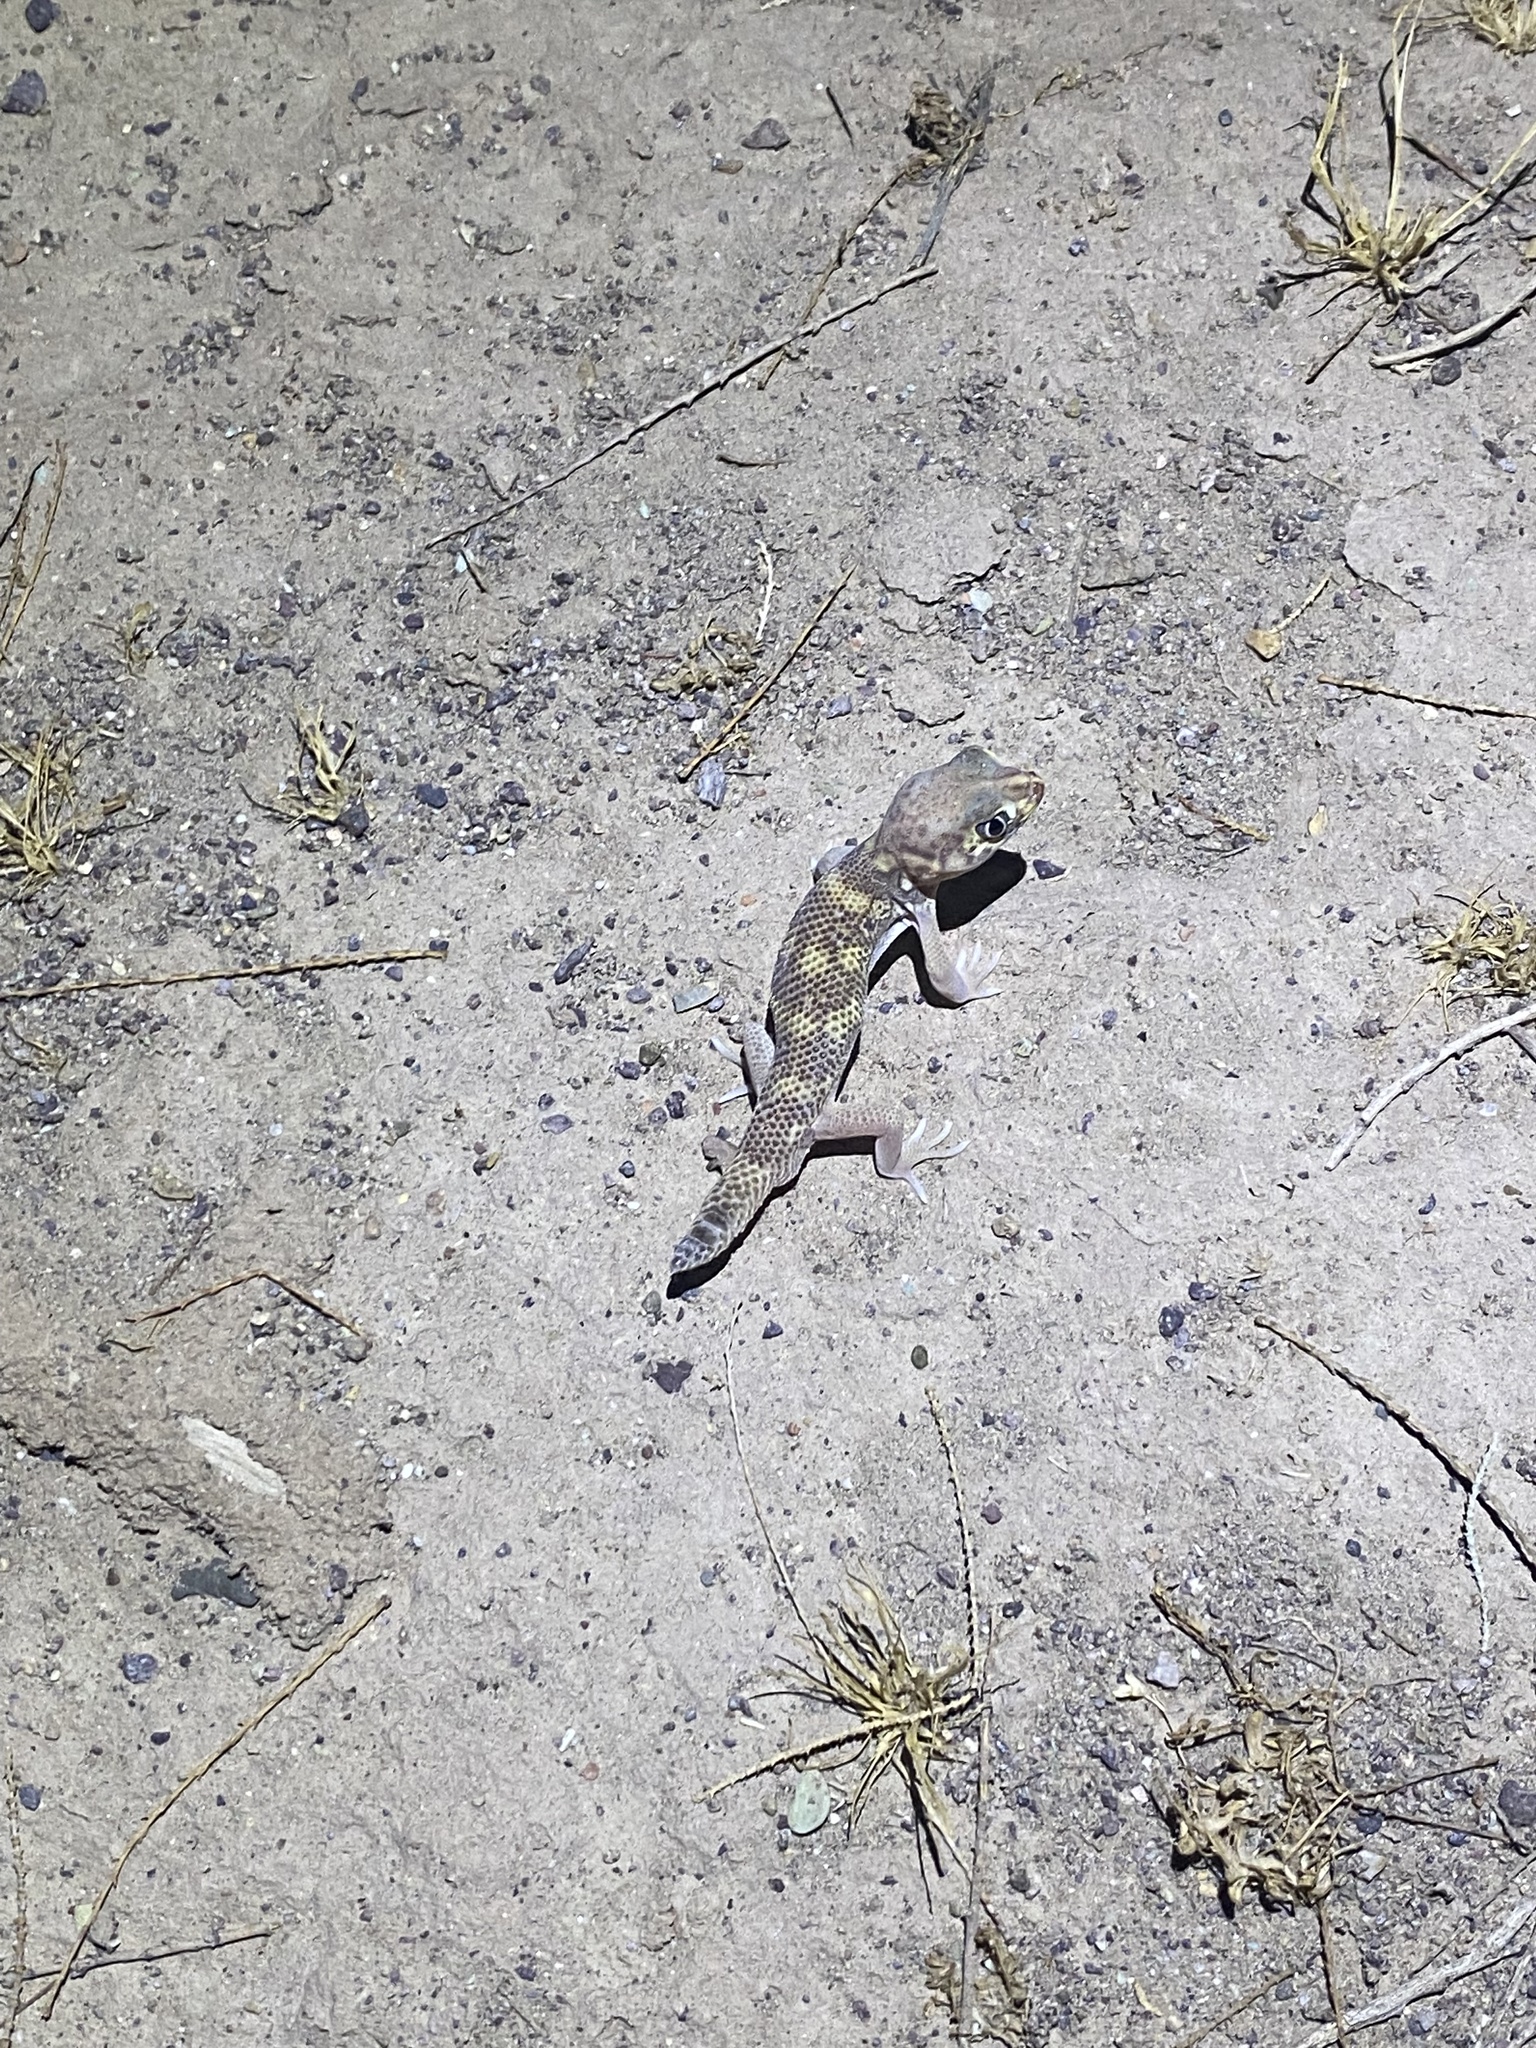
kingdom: Animalia
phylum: Chordata
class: Squamata
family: Sphaerodactylidae
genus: Teratoscincus
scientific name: Teratoscincus bedriagai
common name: Bedriaga's plate-tailed gecko
